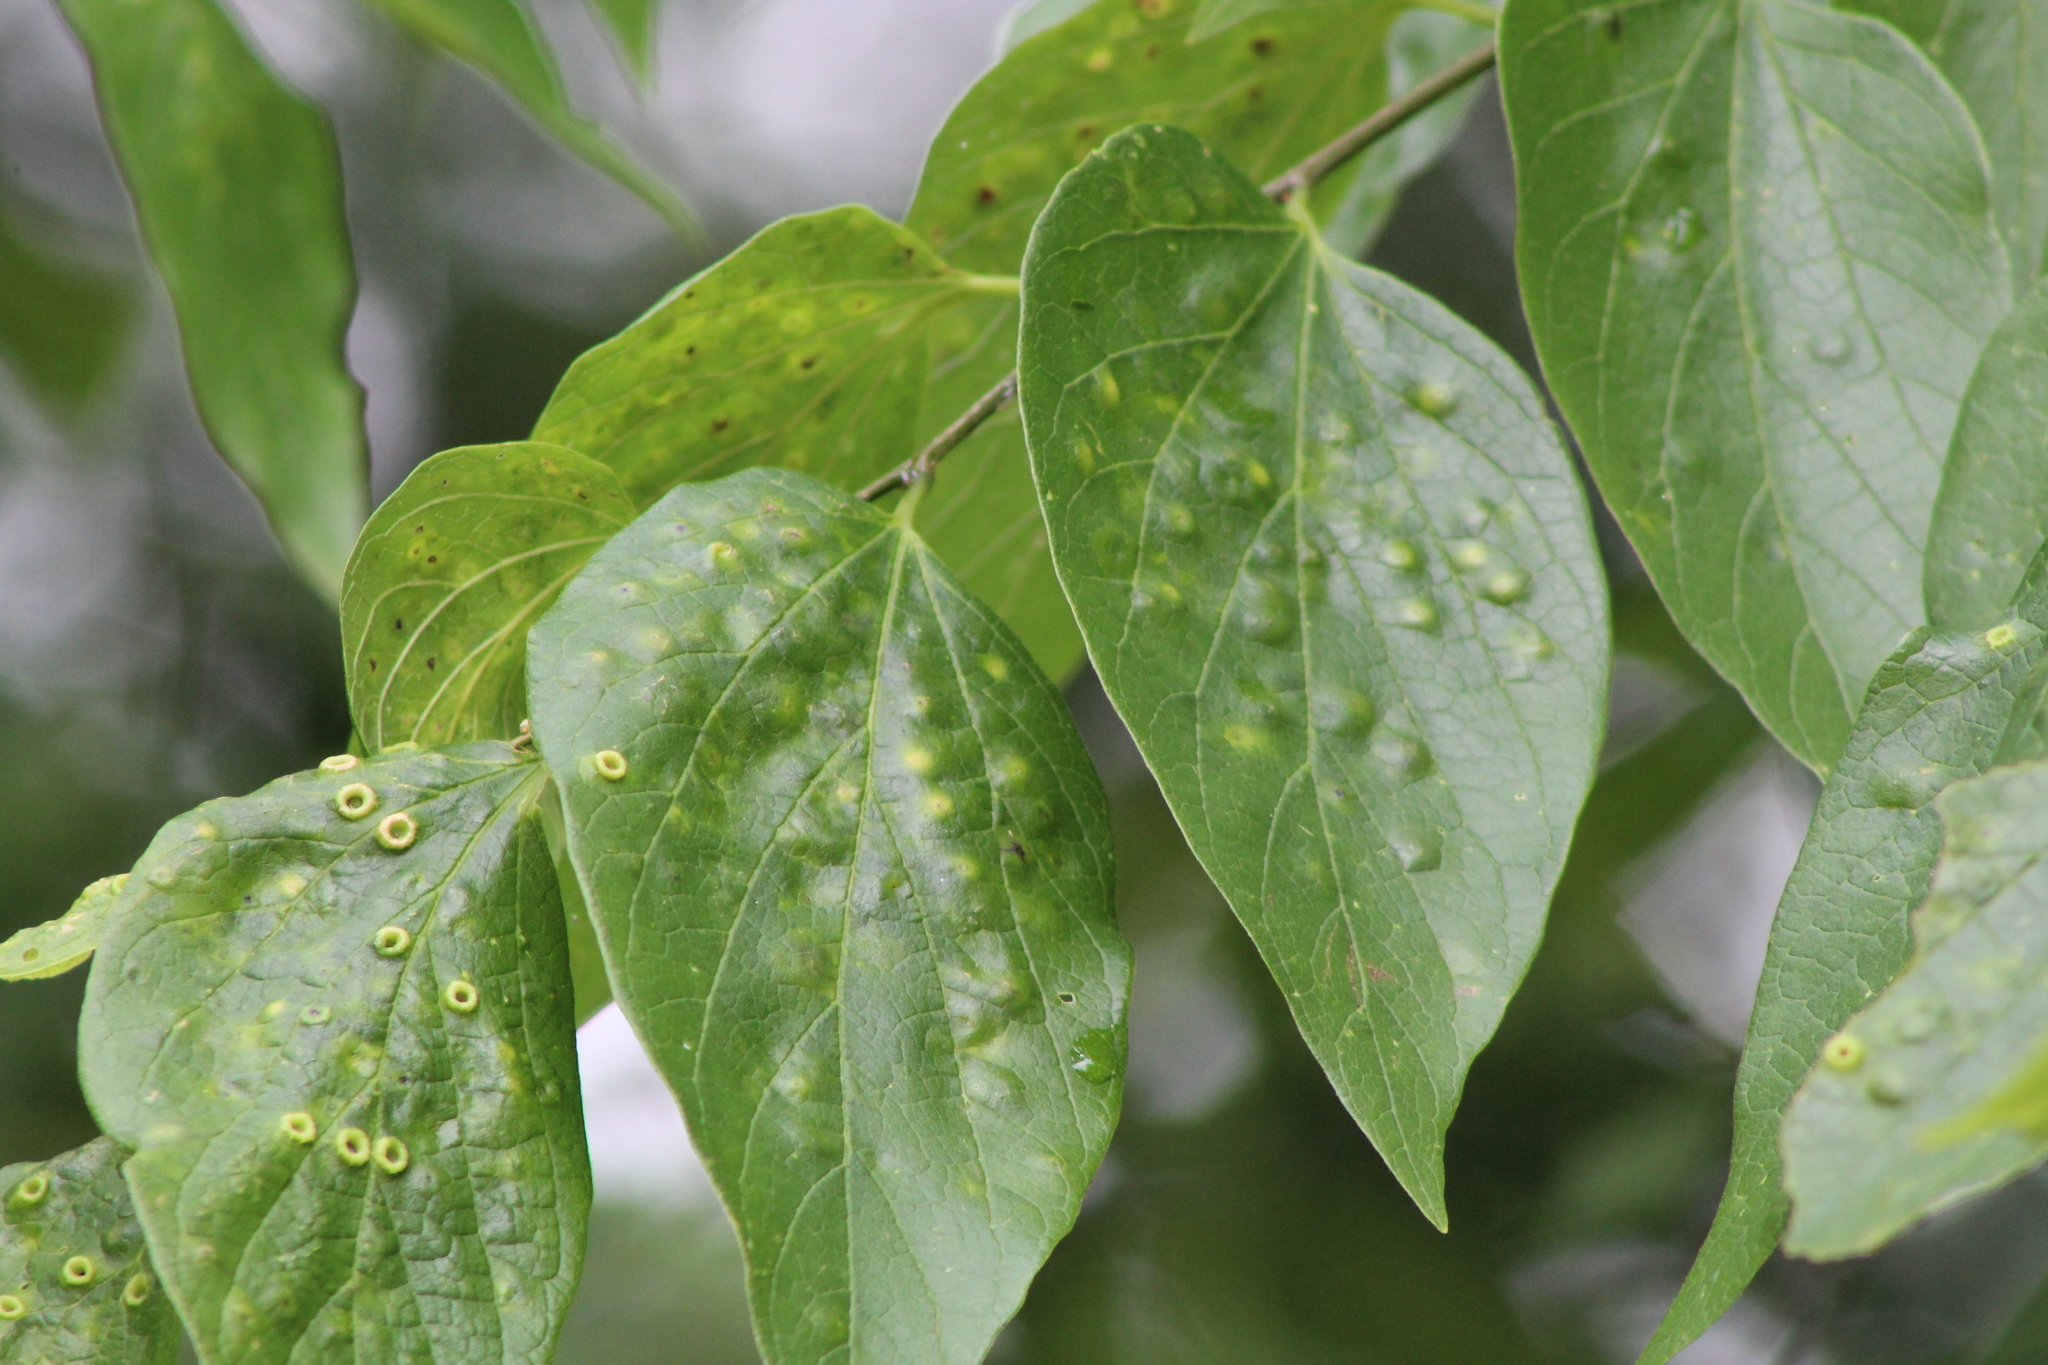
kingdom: Animalia
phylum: Arthropoda
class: Insecta
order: Hemiptera
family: Aphalaridae
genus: Pachypsylla
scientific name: Pachypsylla celtidismamma
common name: Hackberry nipplegall psyllid
